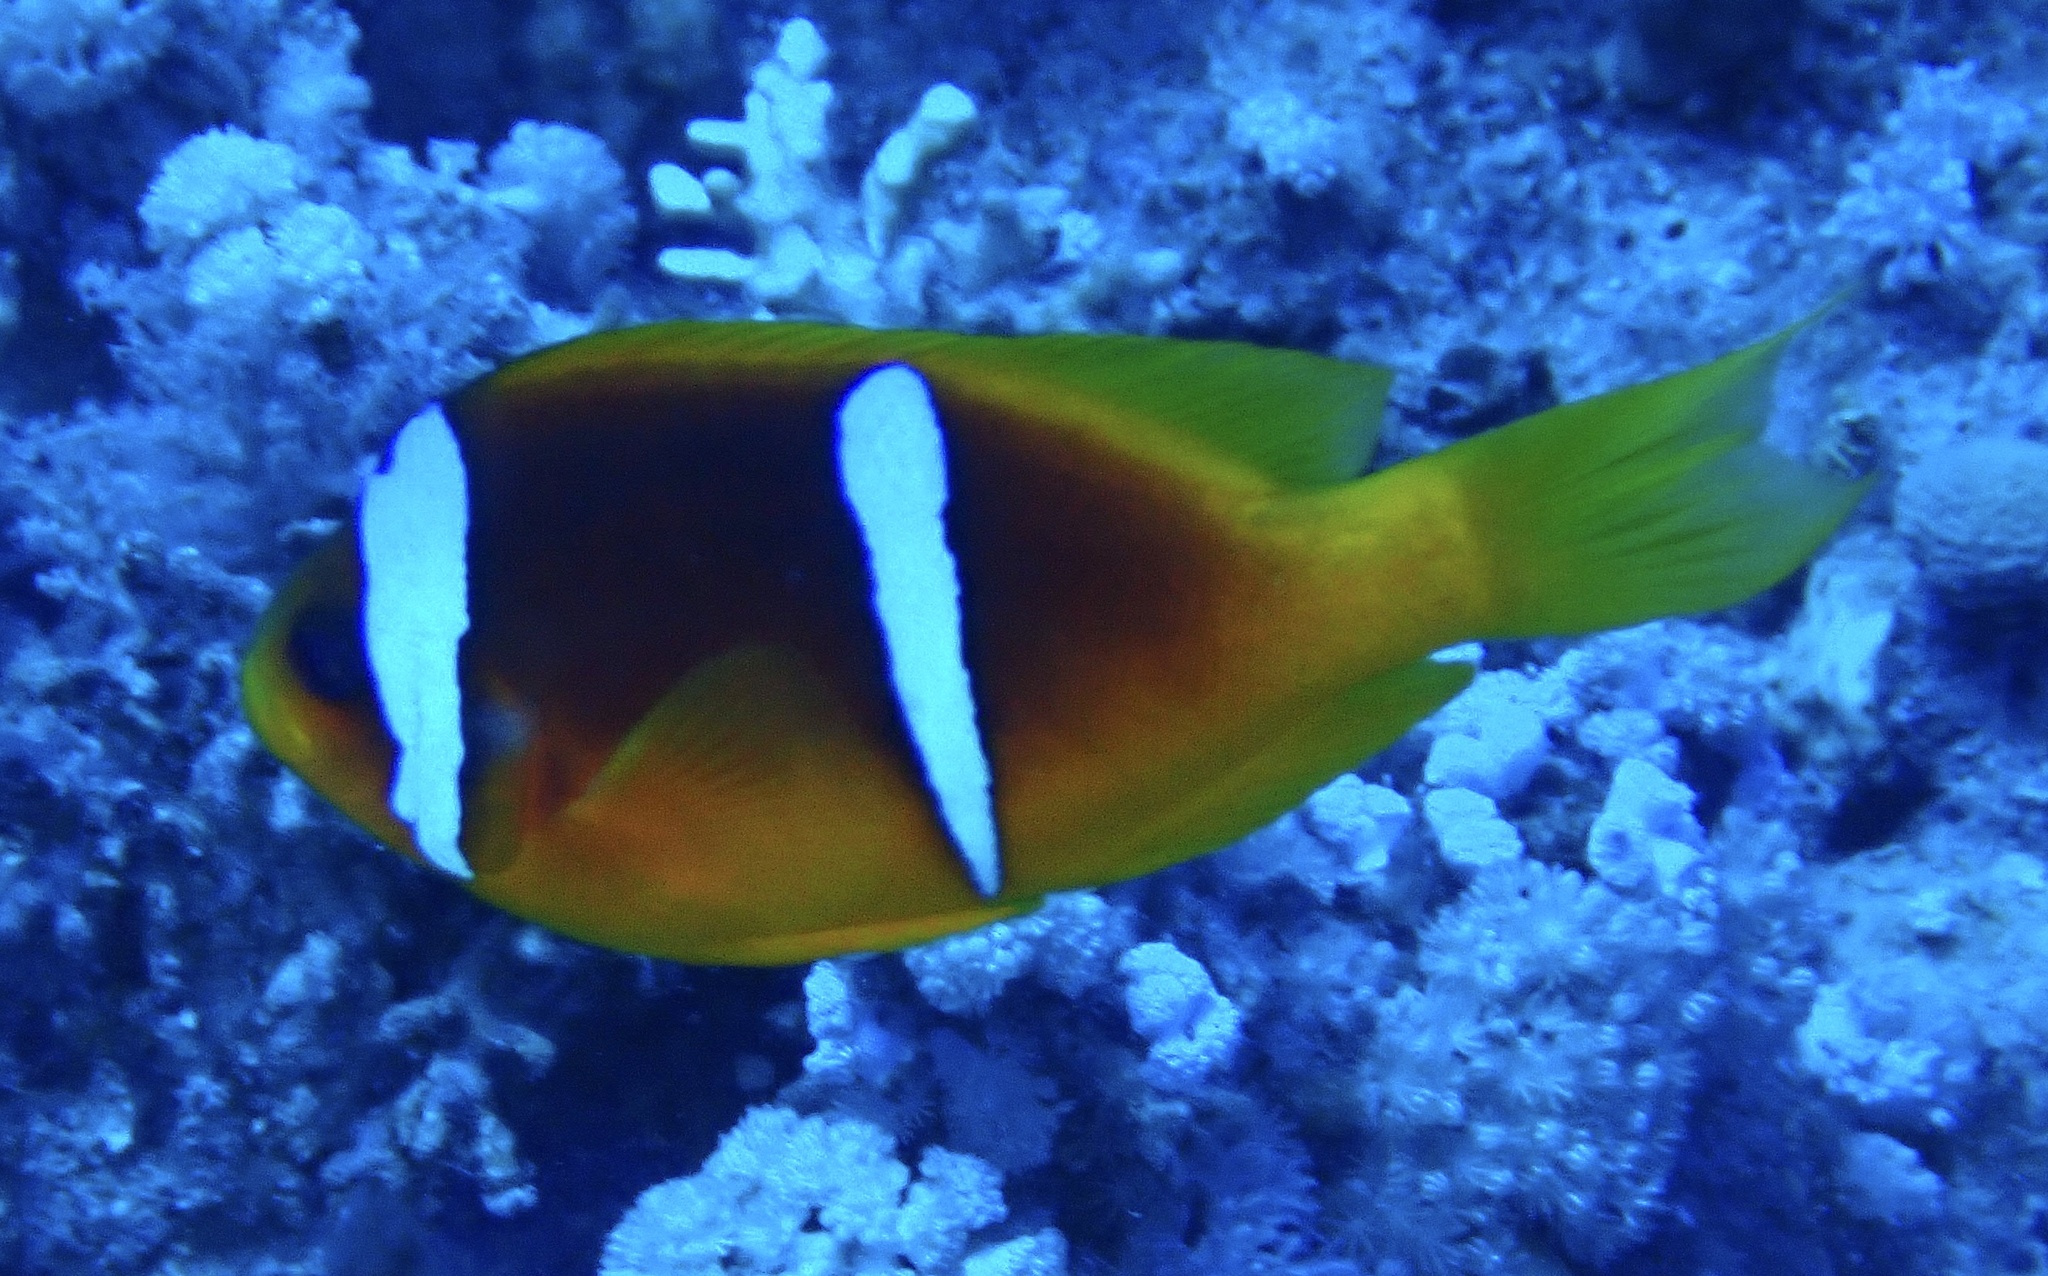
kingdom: Animalia
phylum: Chordata
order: Perciformes
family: Pomacentridae
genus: Amphiprion
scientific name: Amphiprion bicinctus
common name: Two-banded anemonefish
